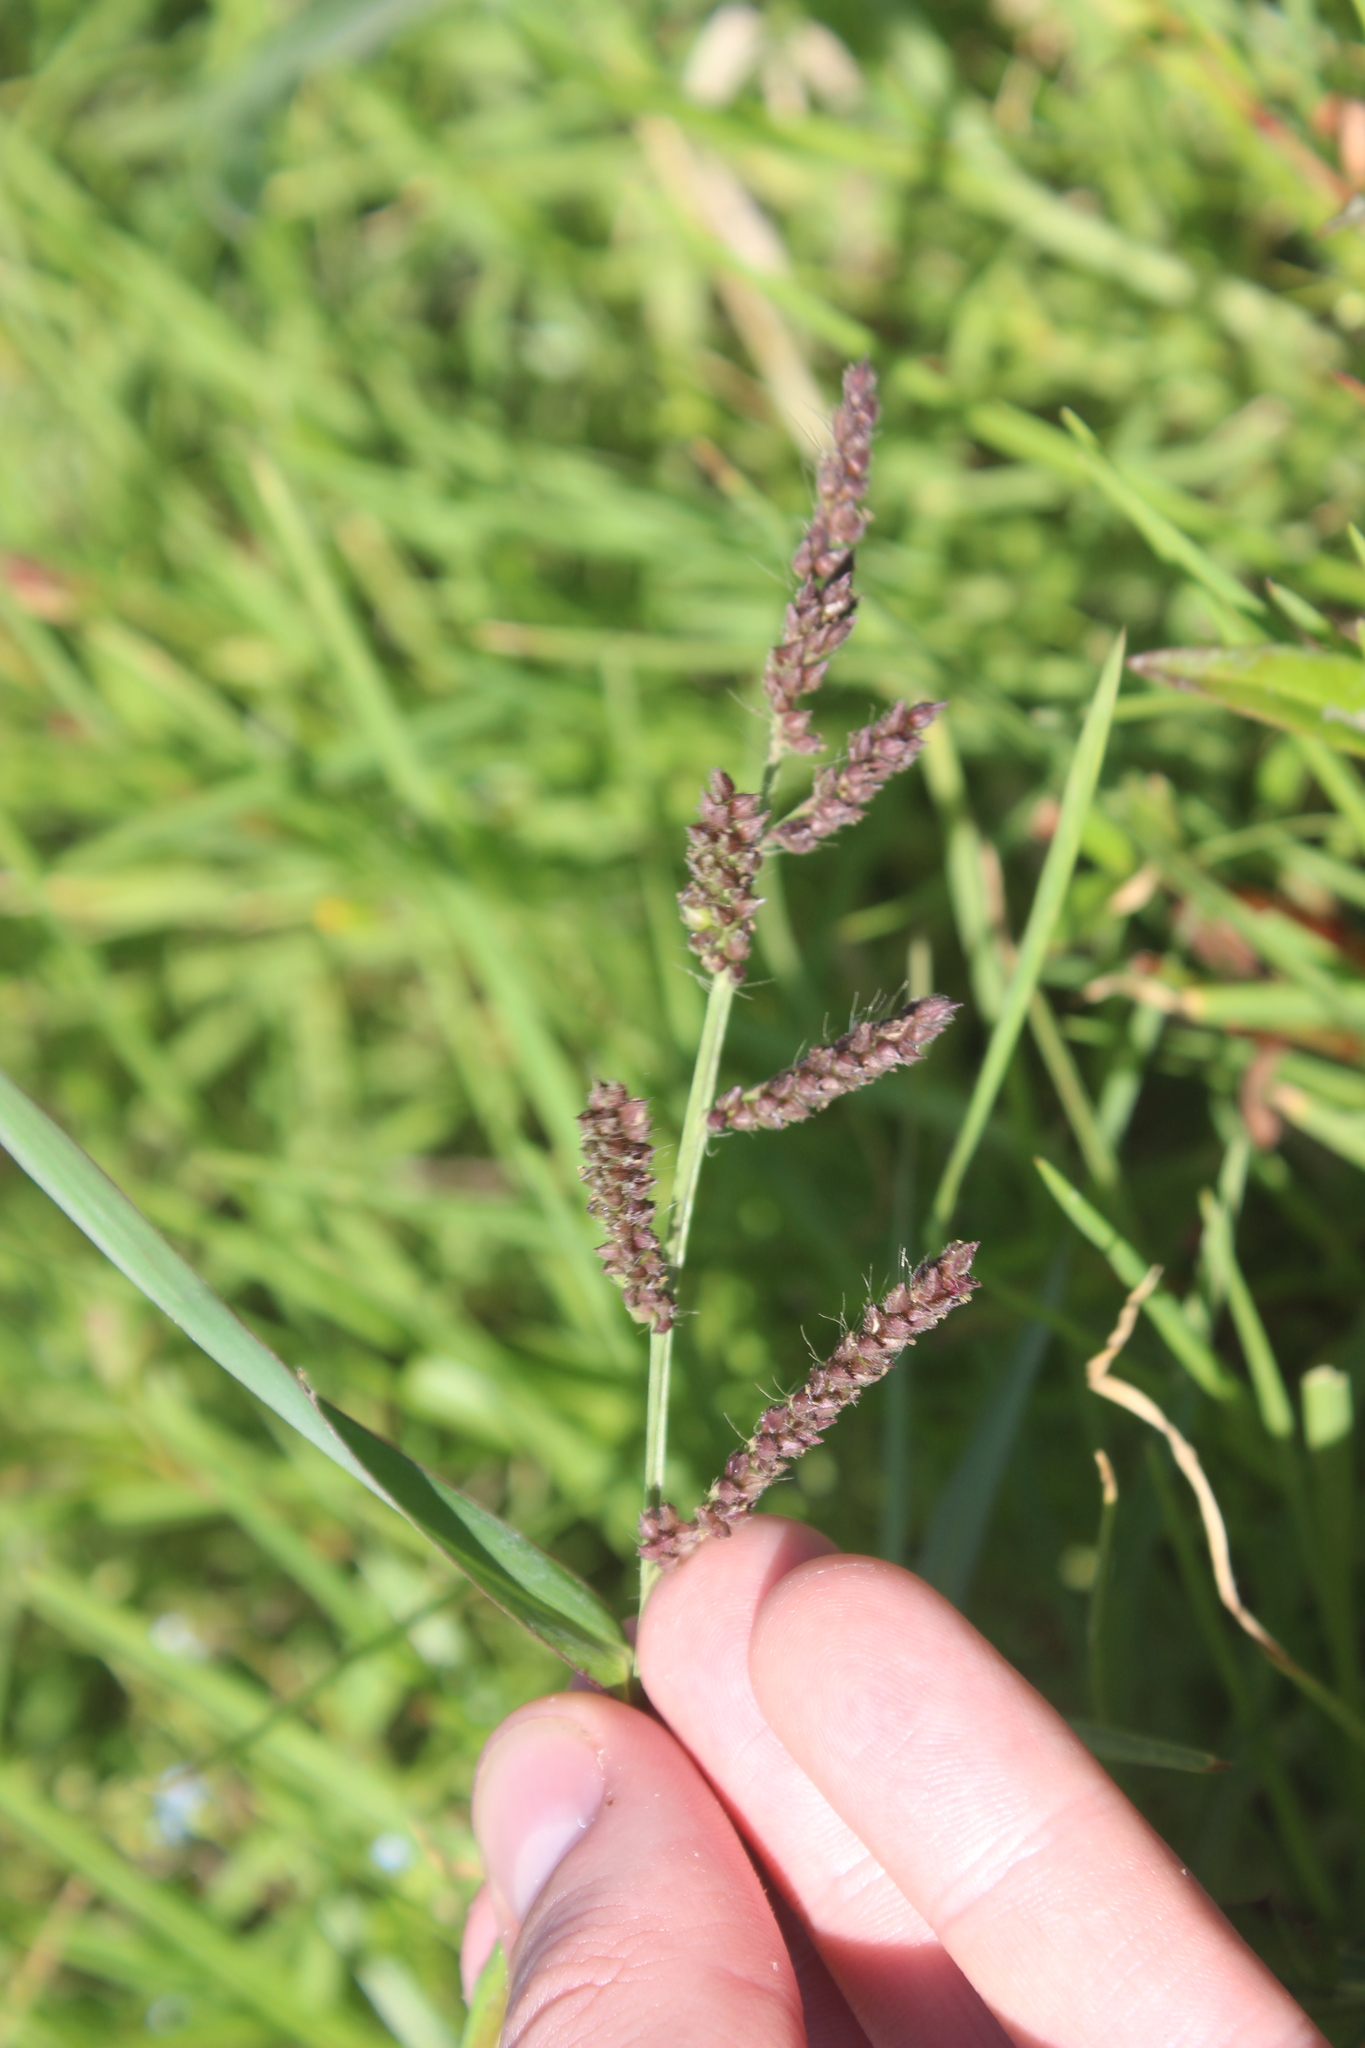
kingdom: Plantae
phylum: Tracheophyta
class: Liliopsida
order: Poales
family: Poaceae
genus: Echinochloa
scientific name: Echinochloa crus-galli
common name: Cockspur
